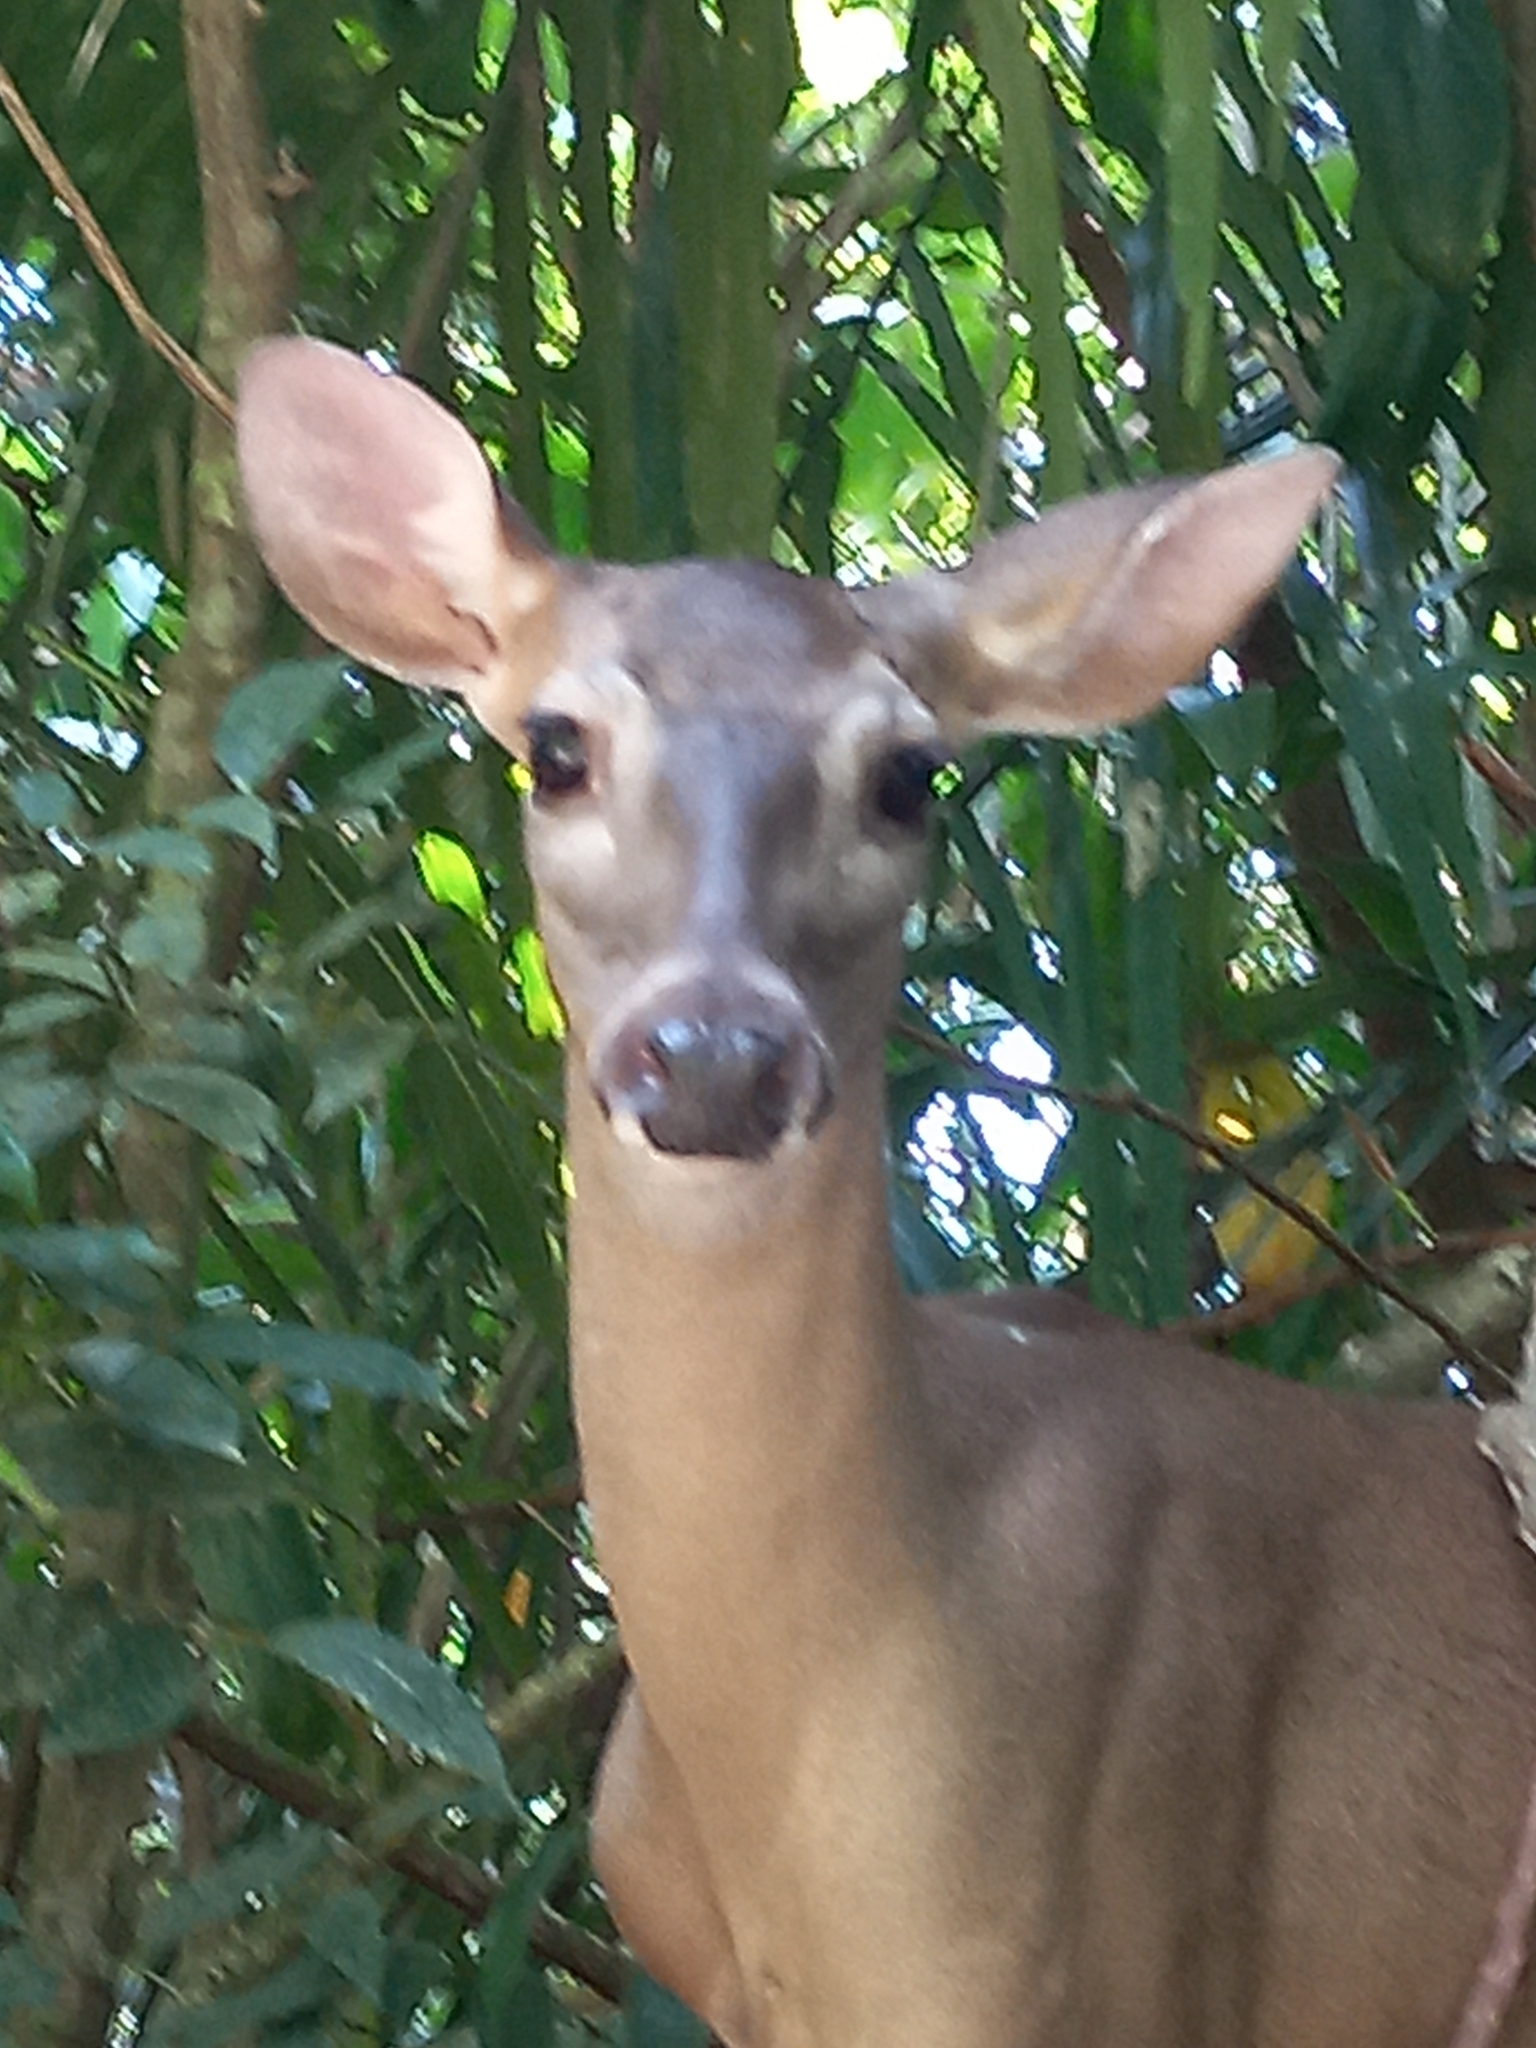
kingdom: Animalia
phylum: Chordata
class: Mammalia
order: Artiodactyla
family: Cervidae
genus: Odocoileus
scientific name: Odocoileus virginianus
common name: White-tailed deer
